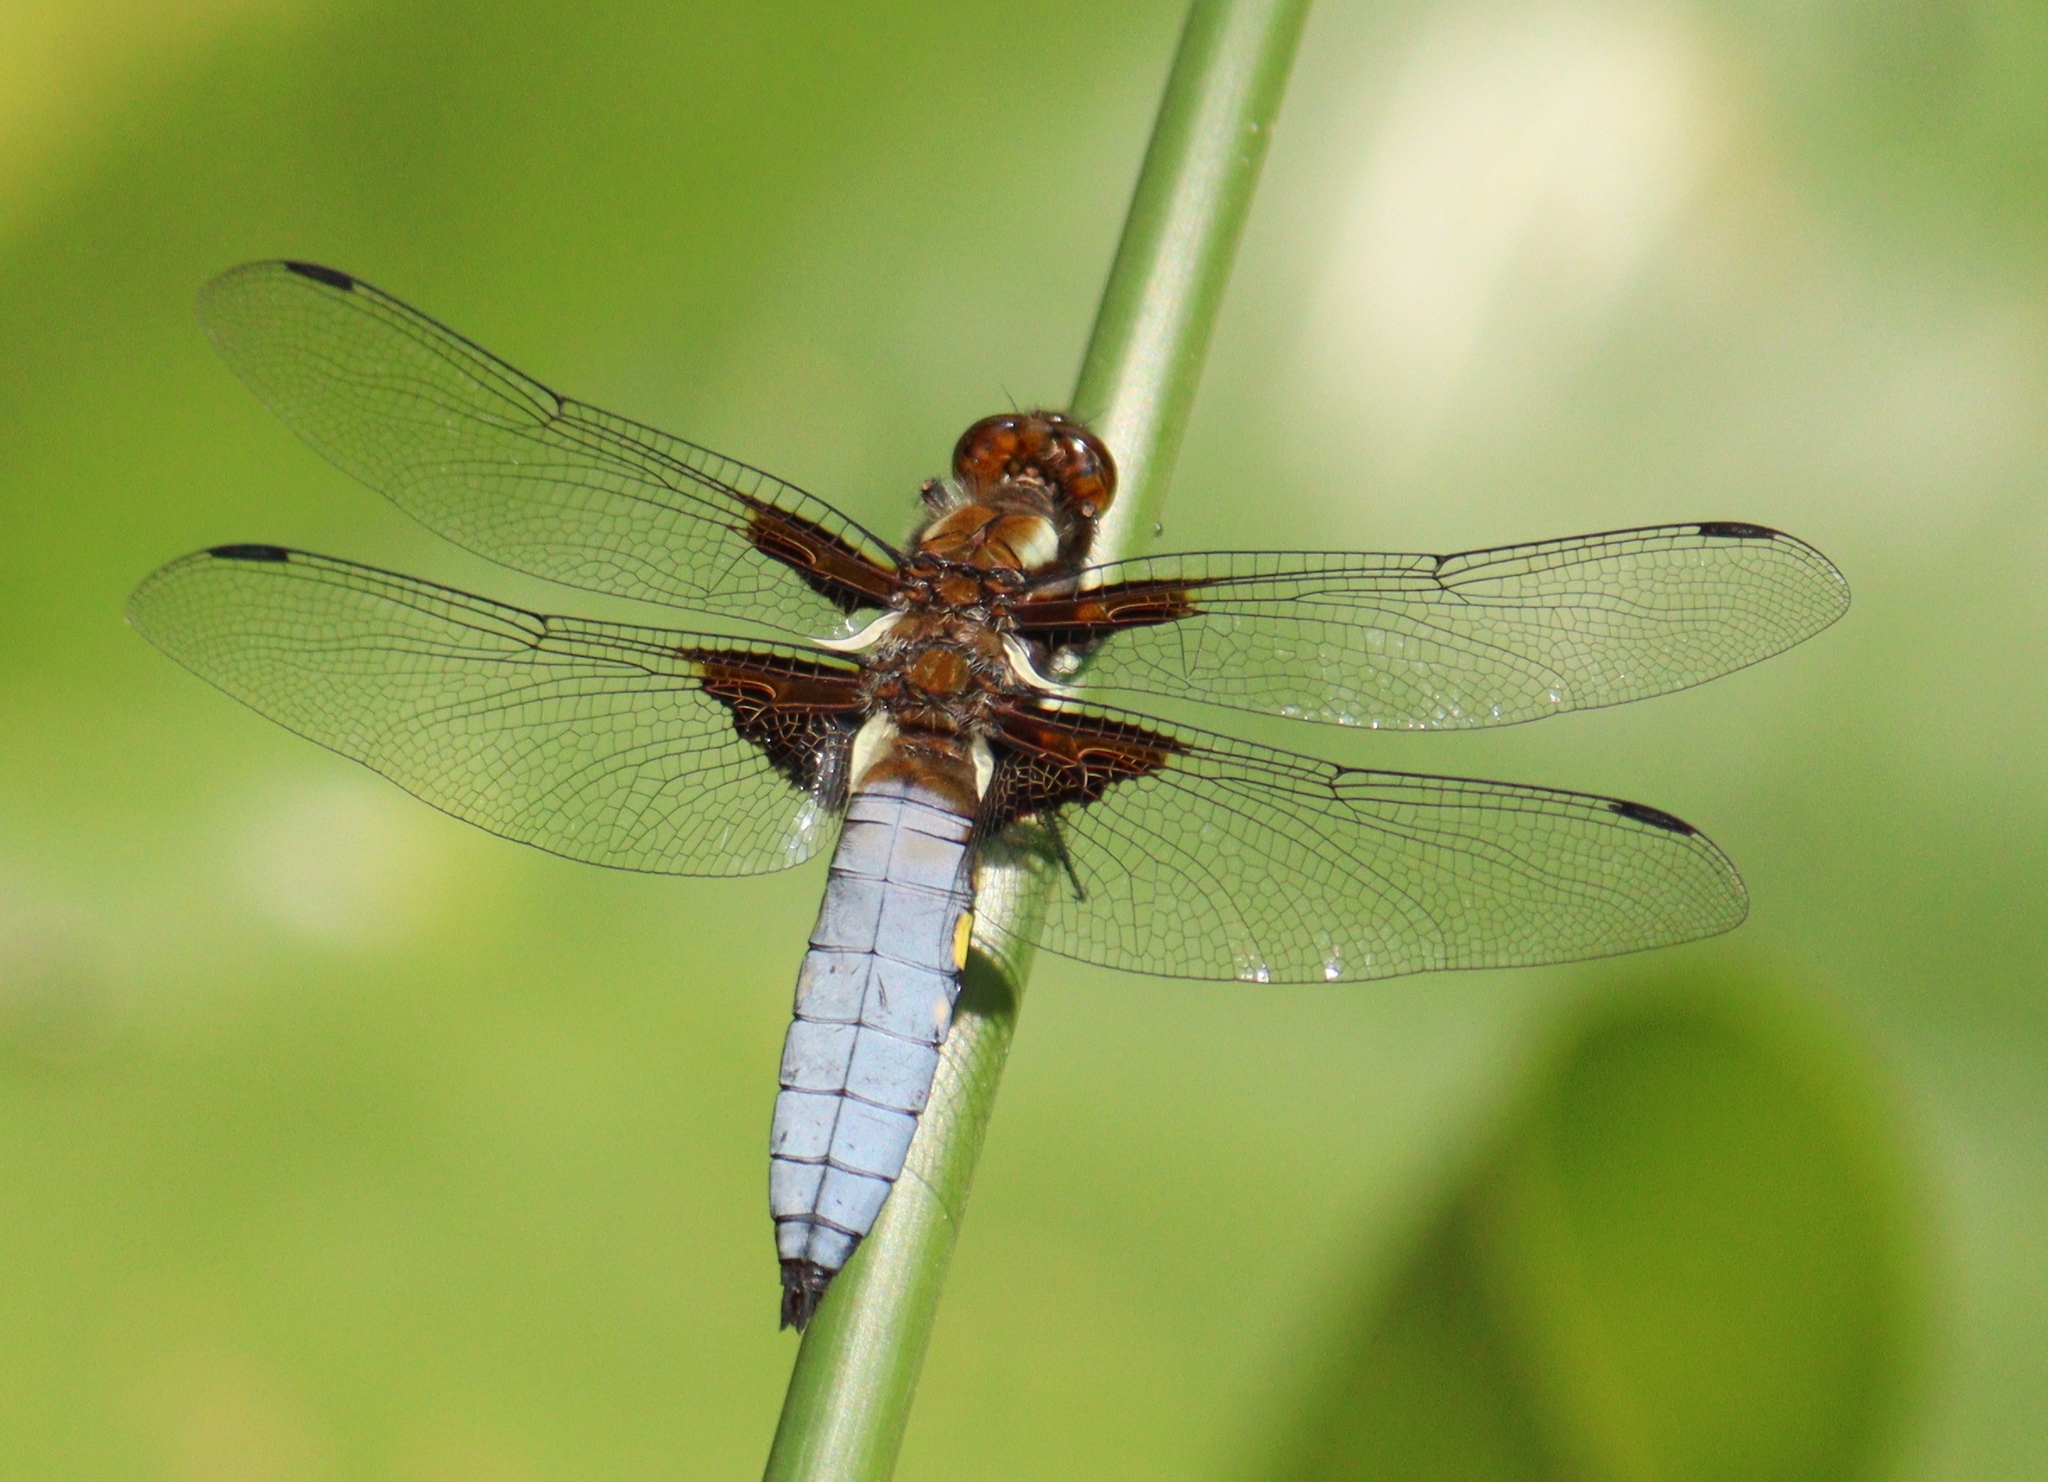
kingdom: Animalia
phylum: Arthropoda
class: Insecta
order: Odonata
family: Libellulidae
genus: Libellula
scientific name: Libellula depressa
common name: Broad-bodied chaser
